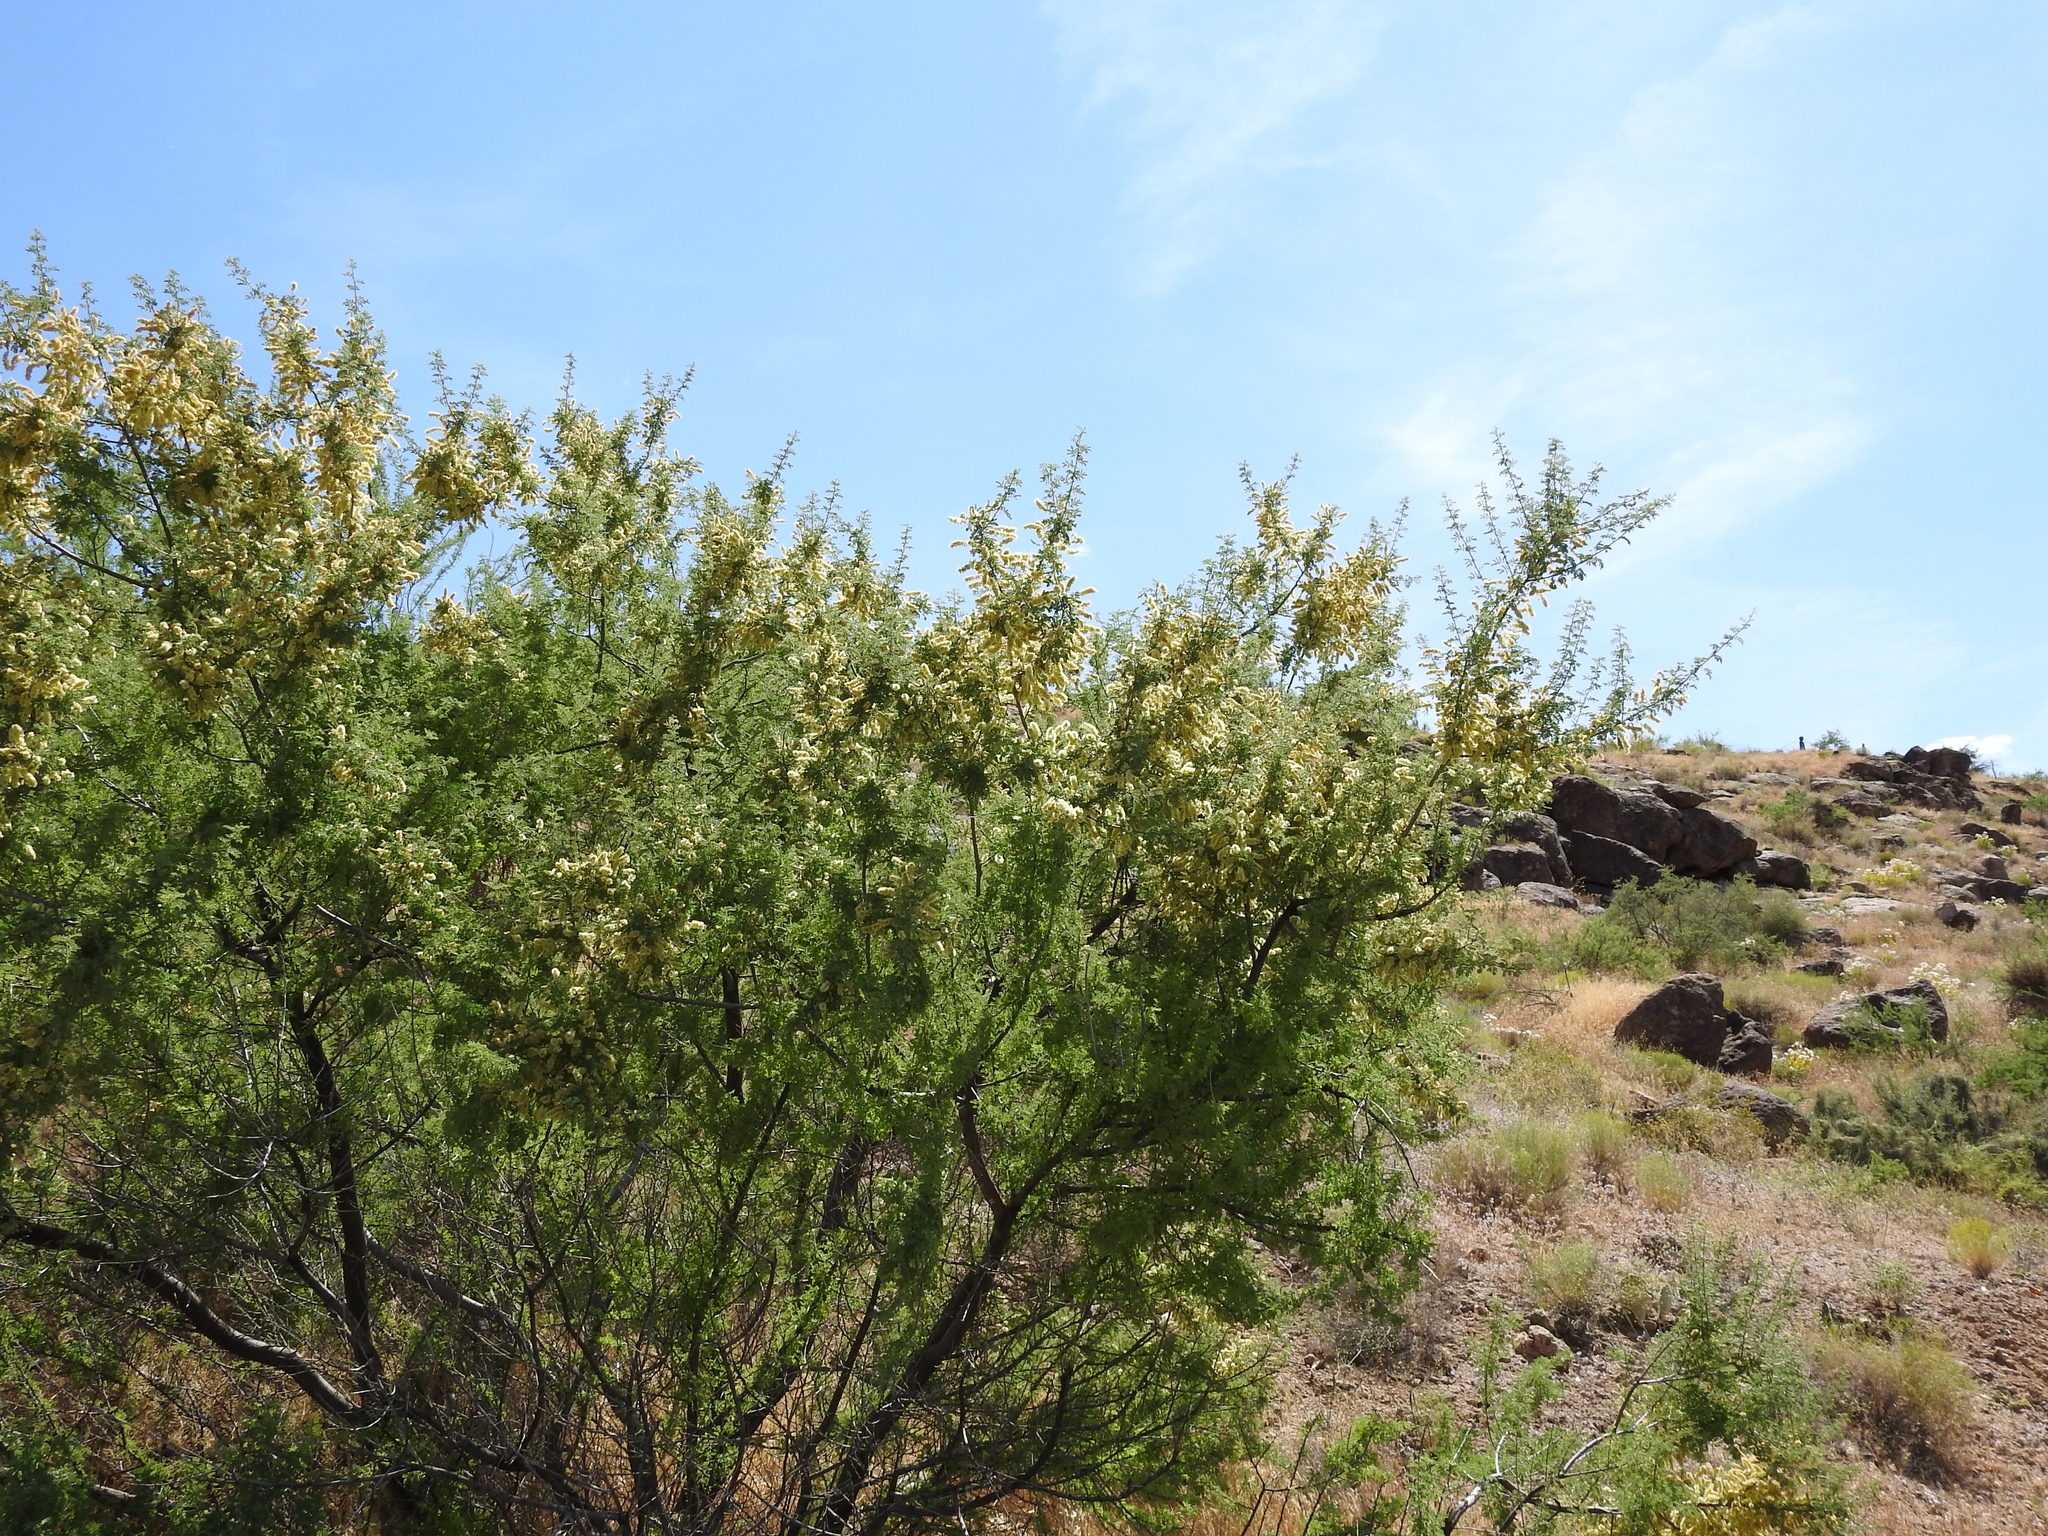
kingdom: Plantae
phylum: Tracheophyta
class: Magnoliopsida
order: Fabales
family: Fabaceae
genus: Senegalia
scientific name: Senegalia greggii
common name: Texas-mimosa
